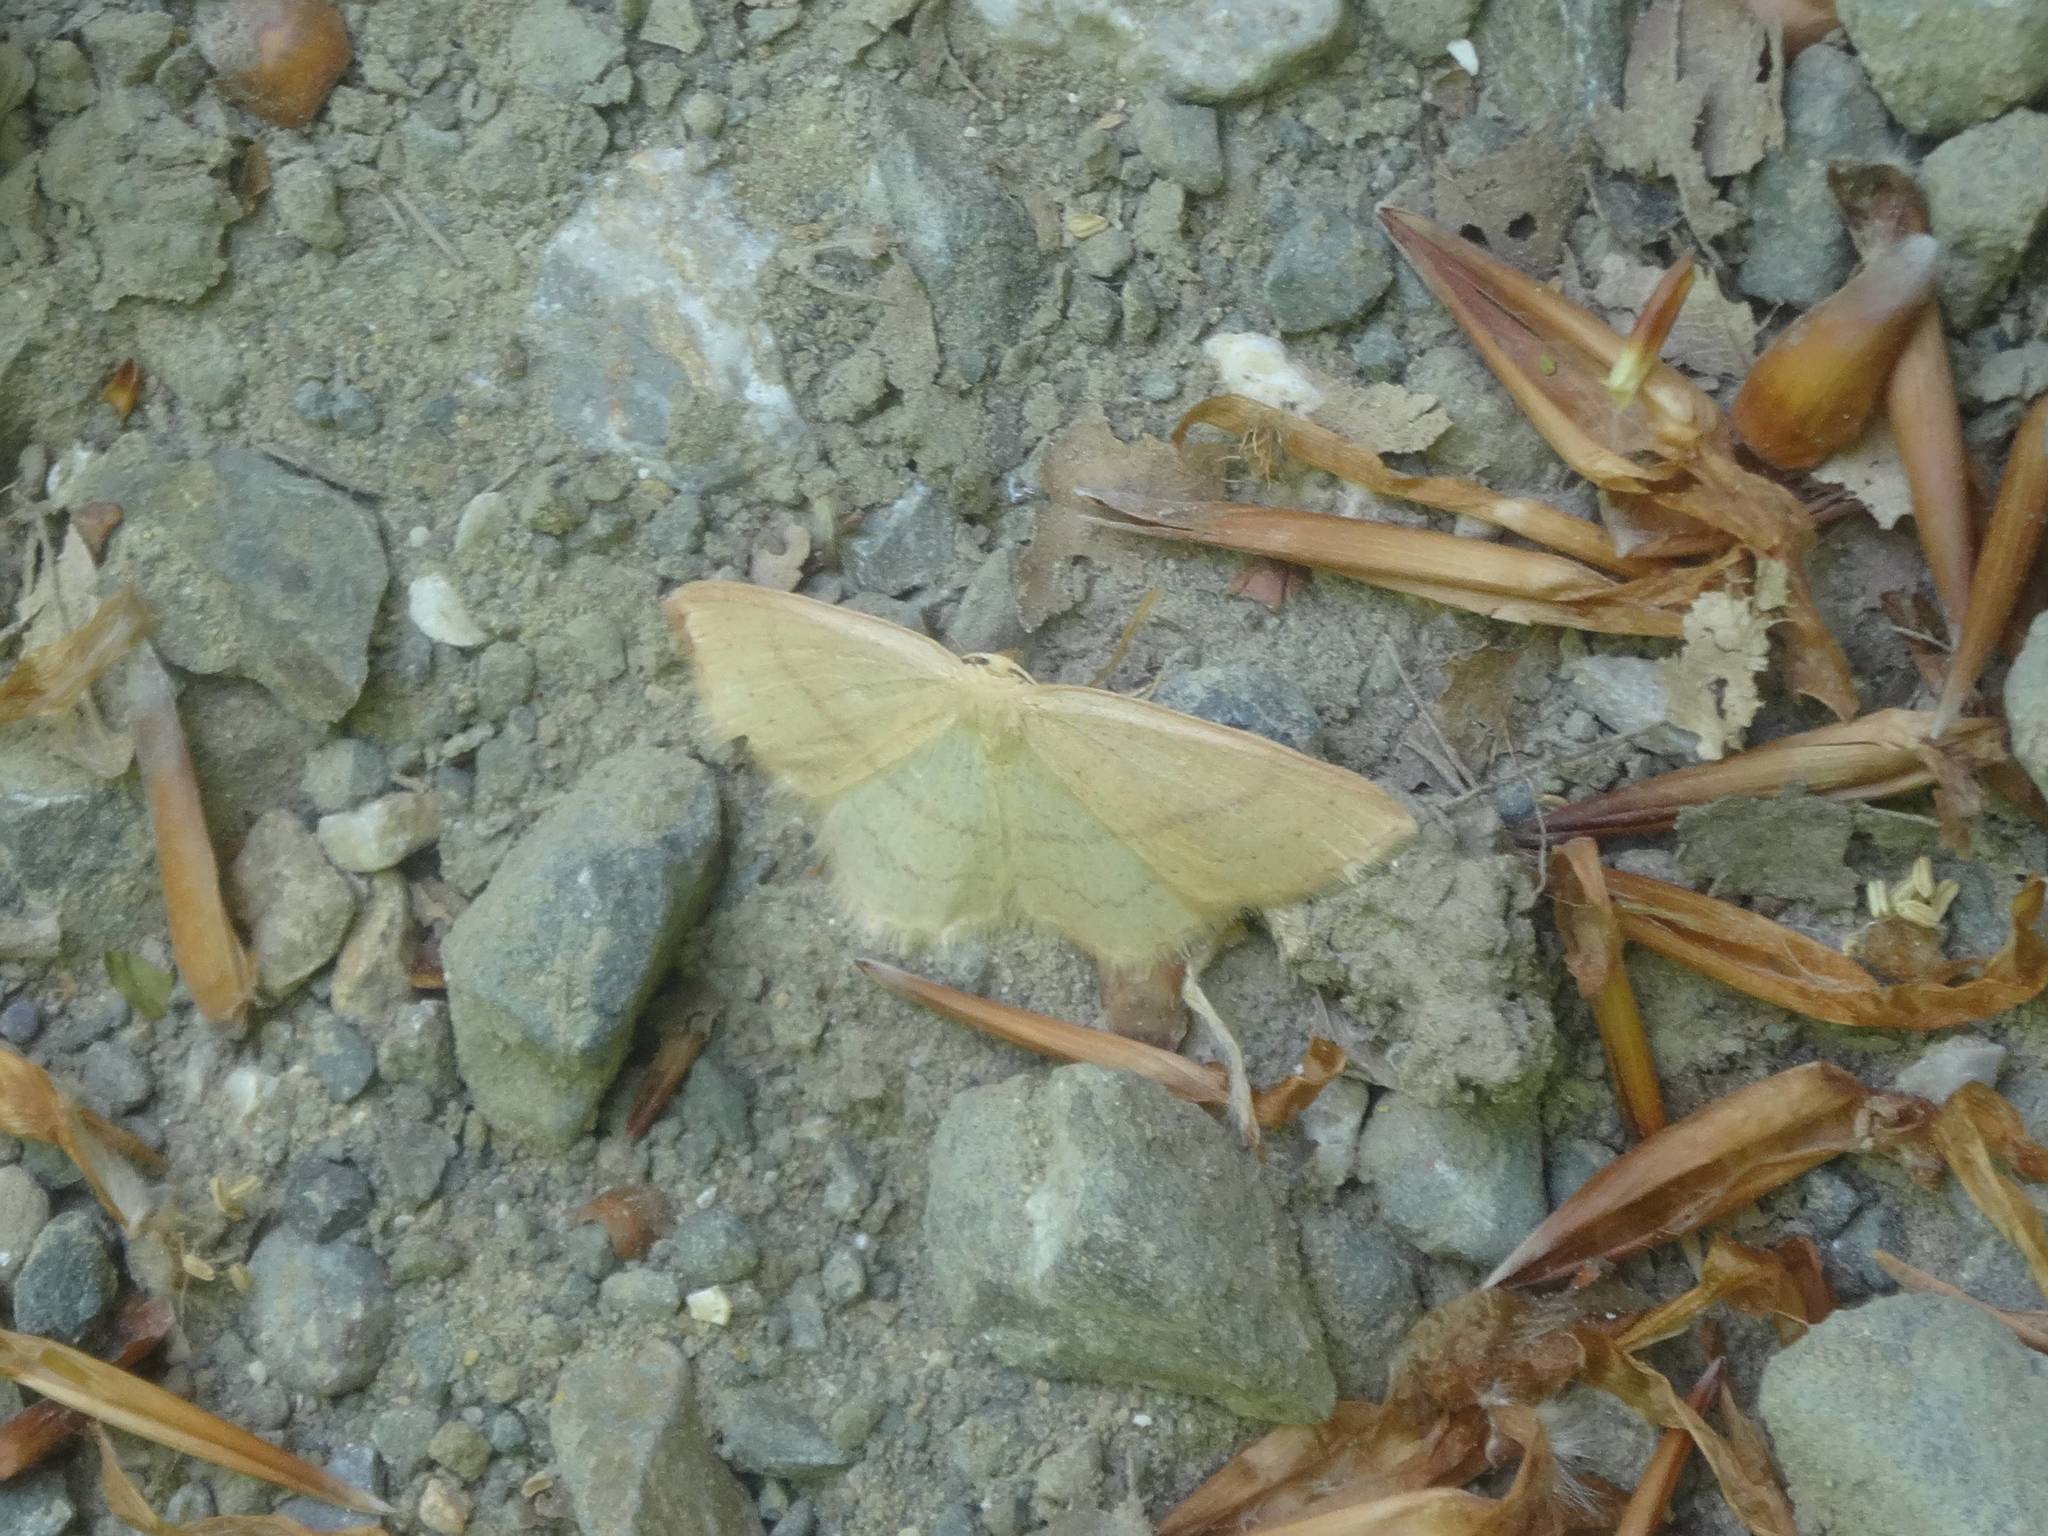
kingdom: Animalia
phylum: Arthropoda
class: Insecta
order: Lepidoptera
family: Geometridae
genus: Cyclophora
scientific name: Cyclophora linearia
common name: Clay triple-lines
